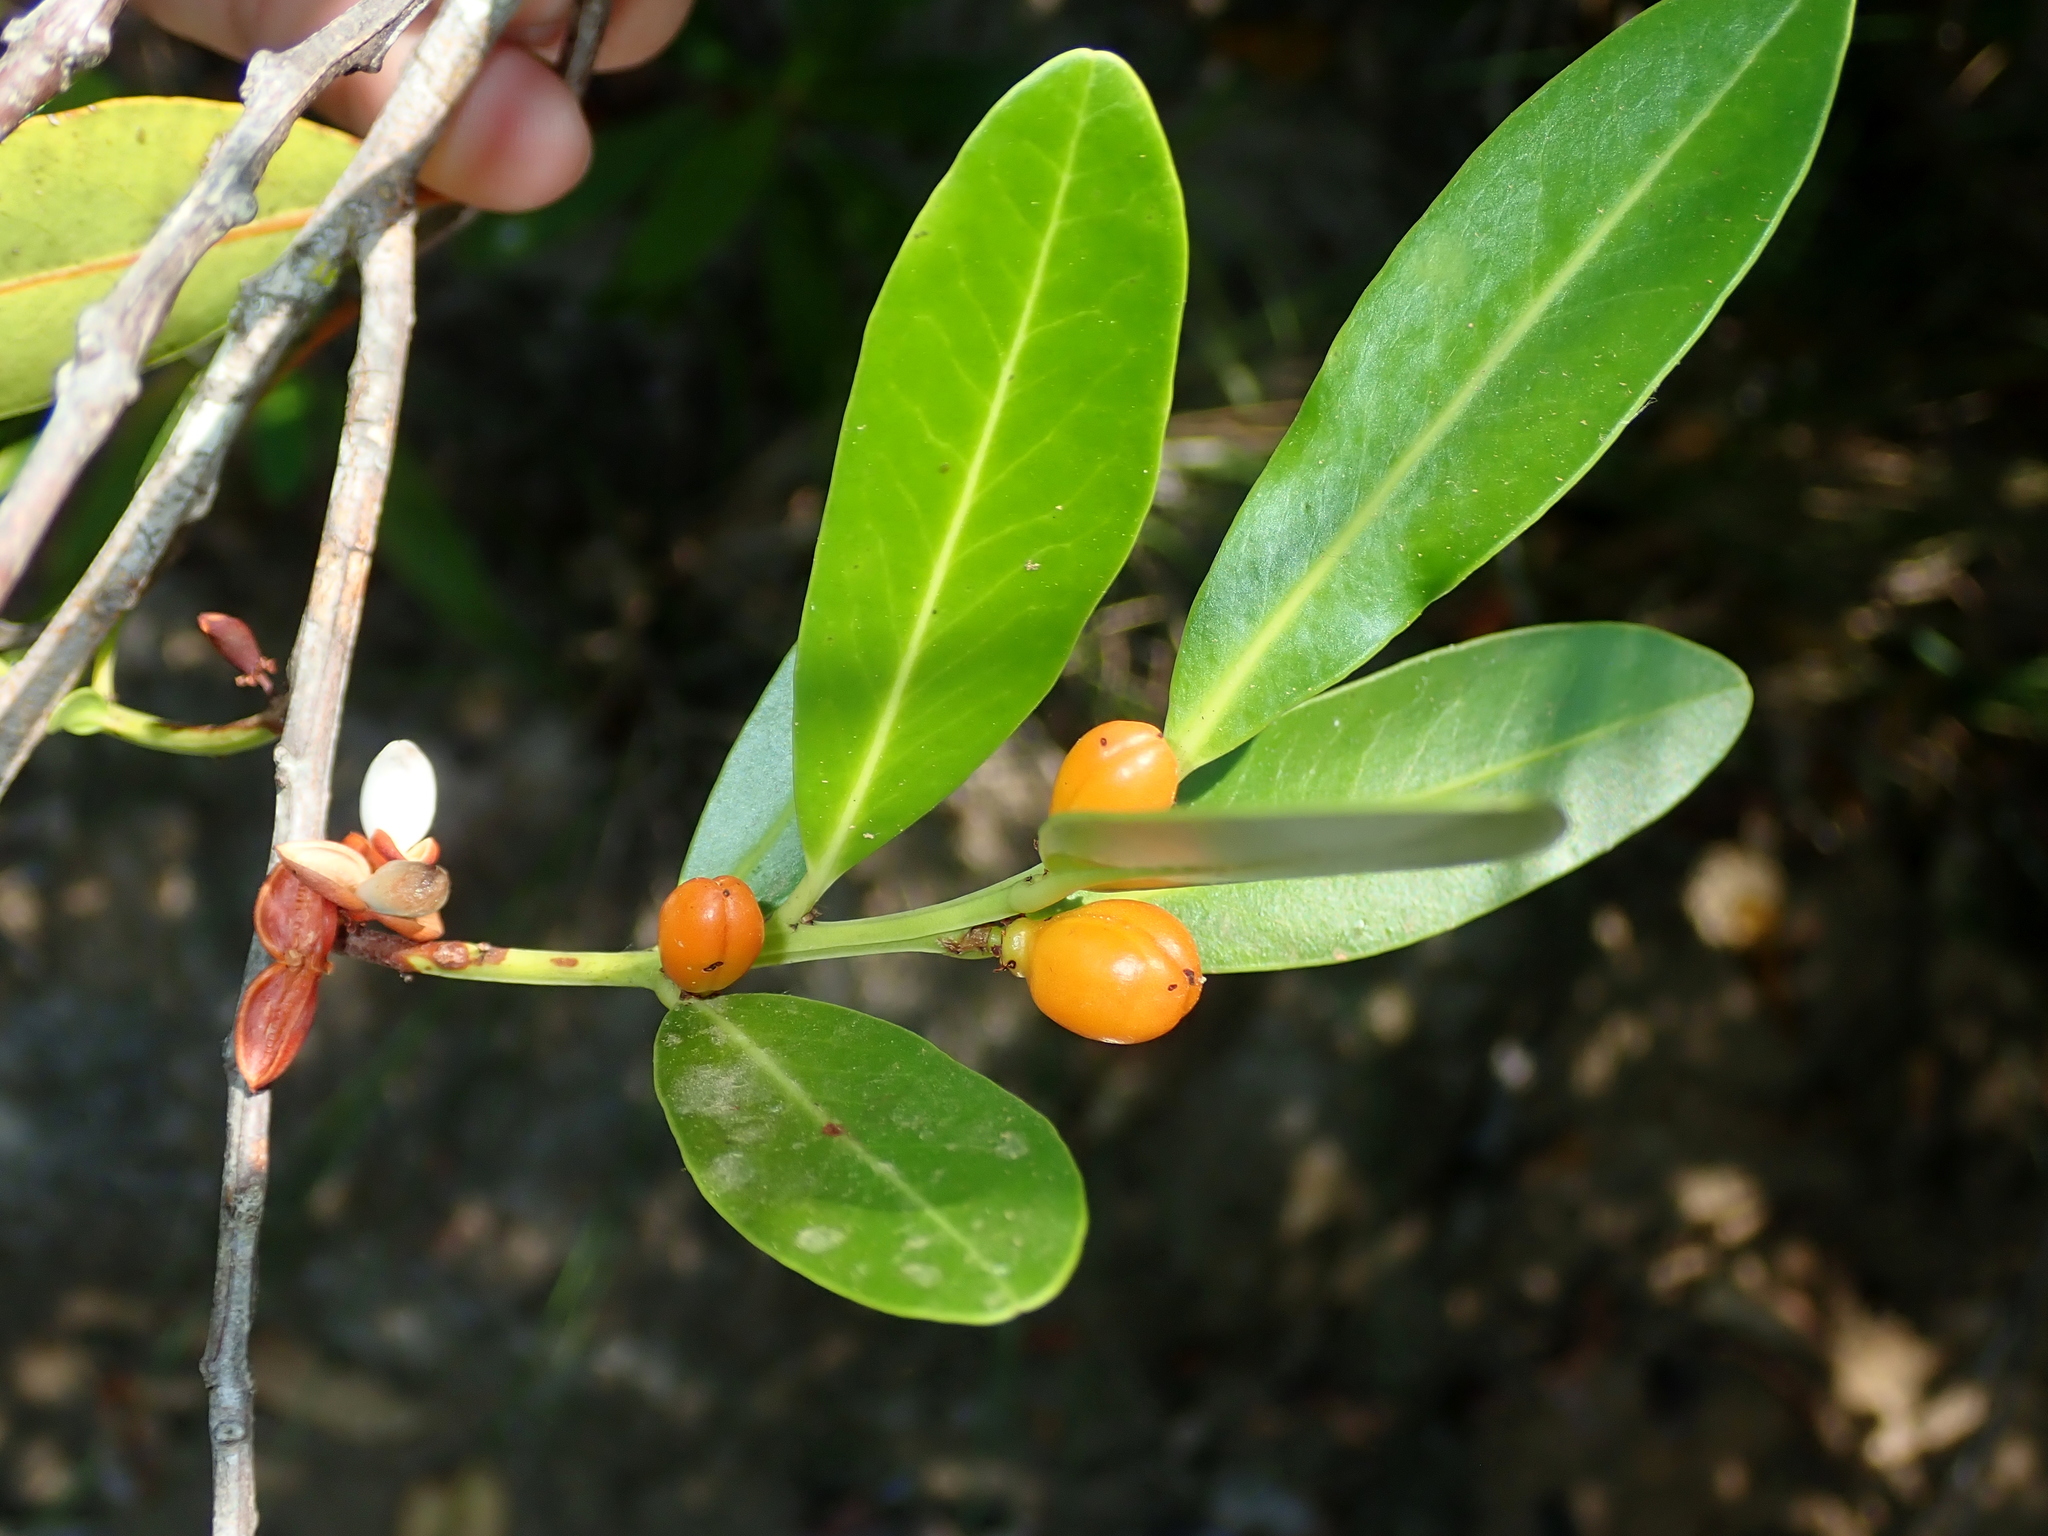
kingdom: Plantae
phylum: Tracheophyta
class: Magnoliopsida
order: Celastrales
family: Celastraceae
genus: Monteverdia
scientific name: Monteverdia chapadensis
